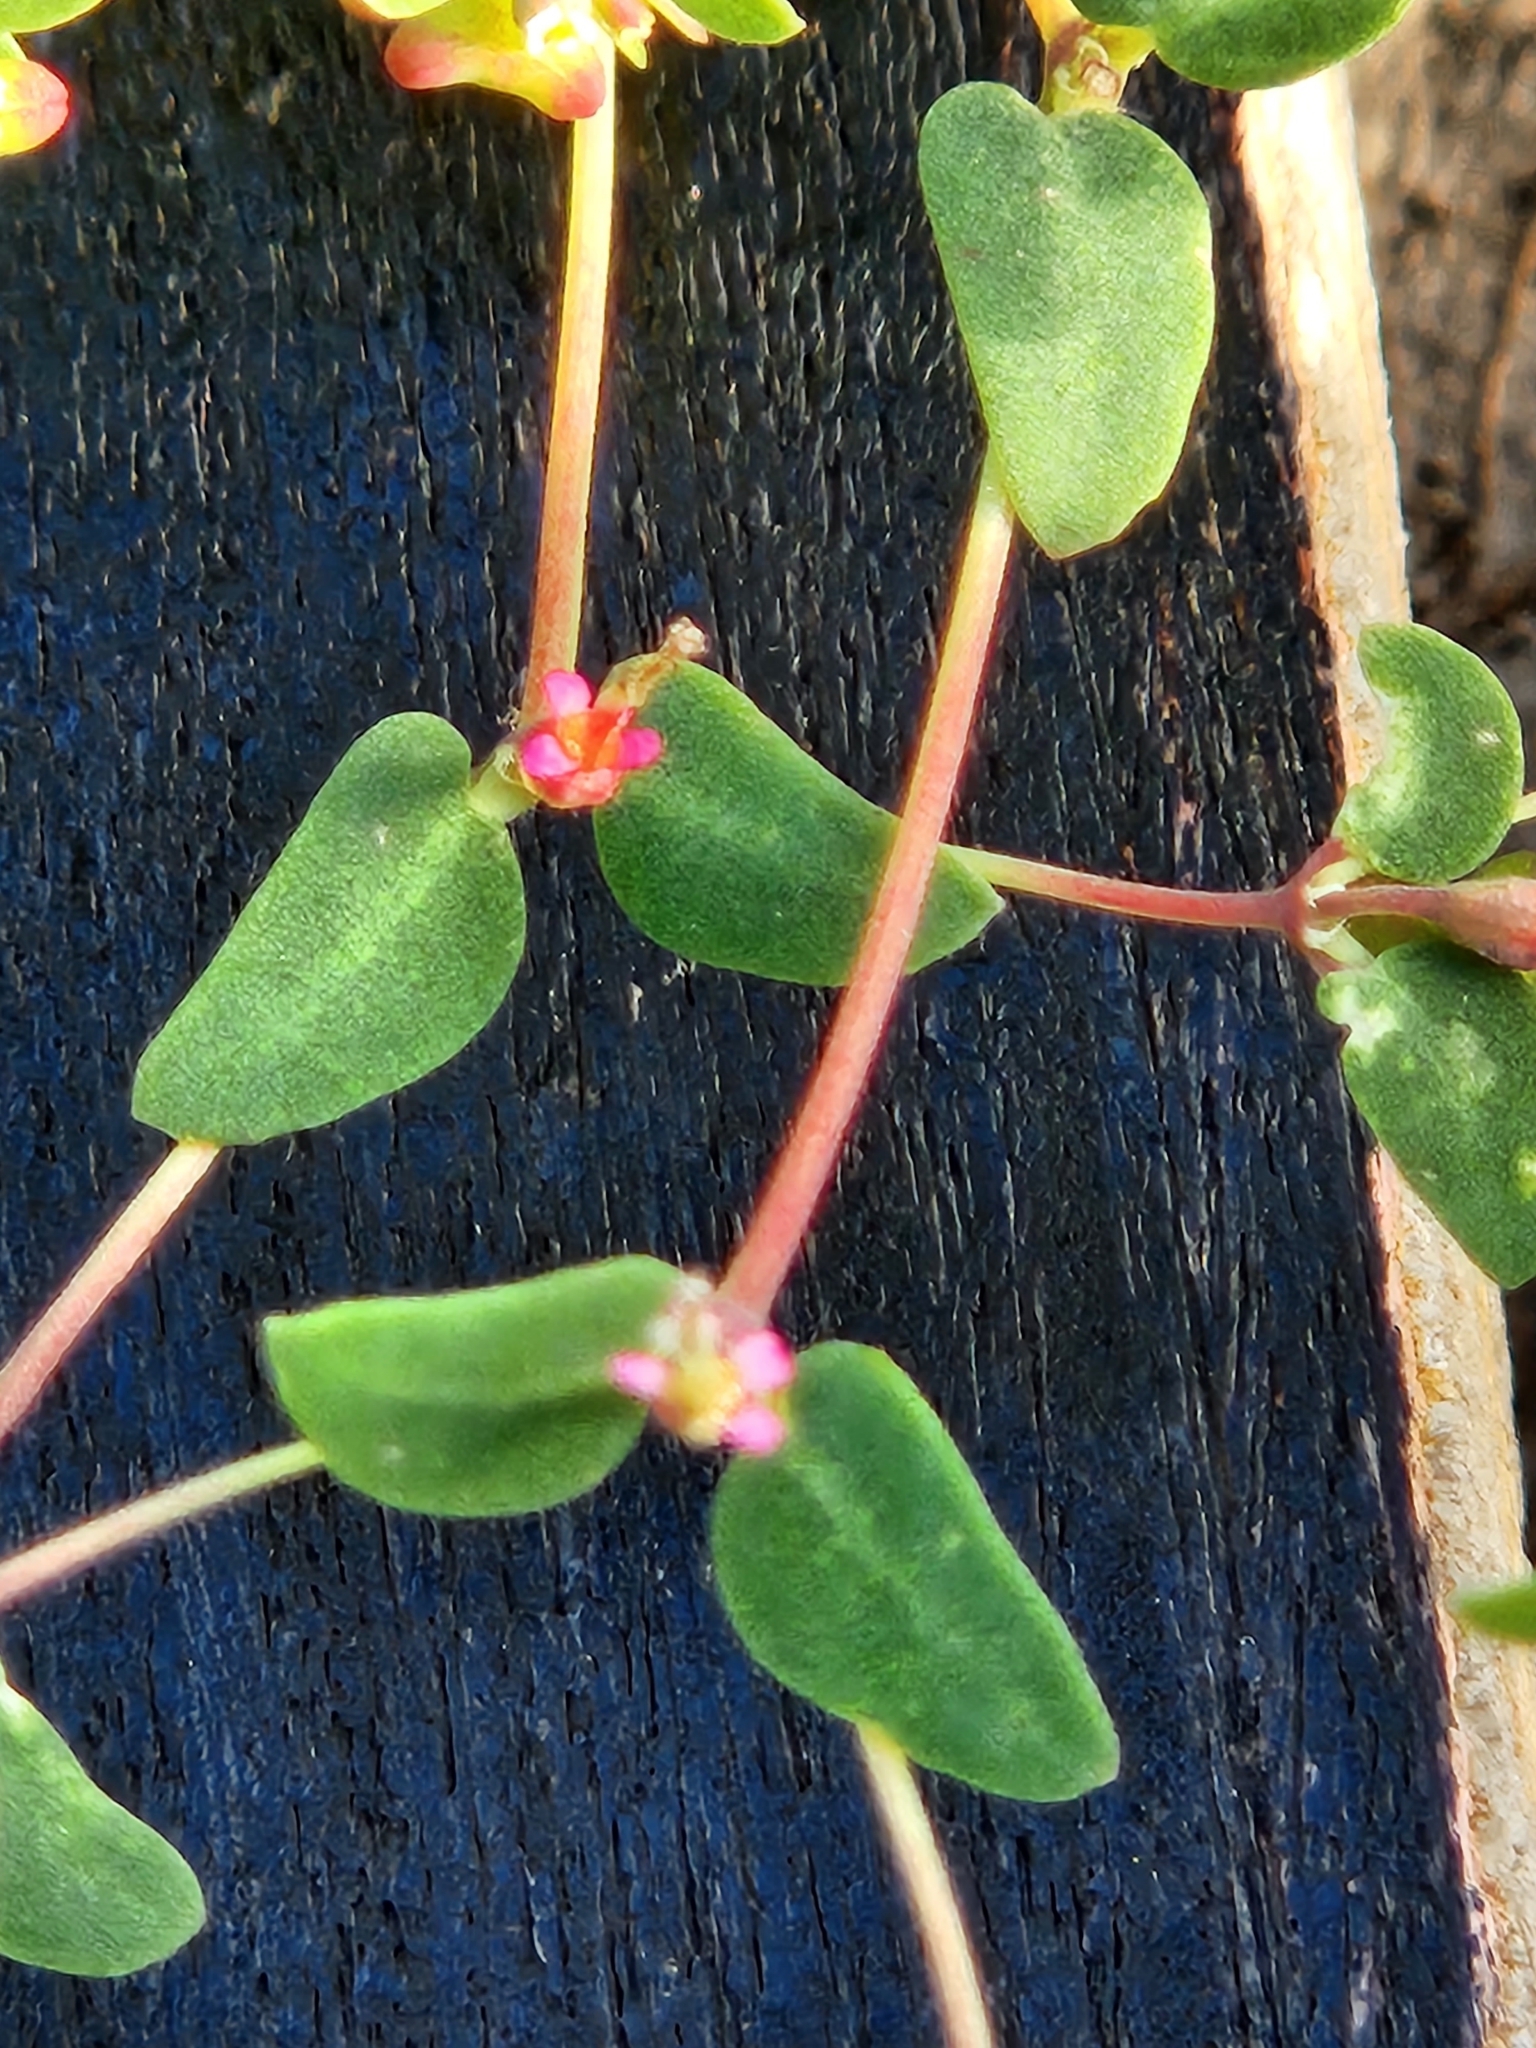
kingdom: Plantae
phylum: Tracheophyta
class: Magnoliopsida
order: Malpighiales
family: Euphorbiaceae
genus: Euphorbia
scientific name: Euphorbia villifera
